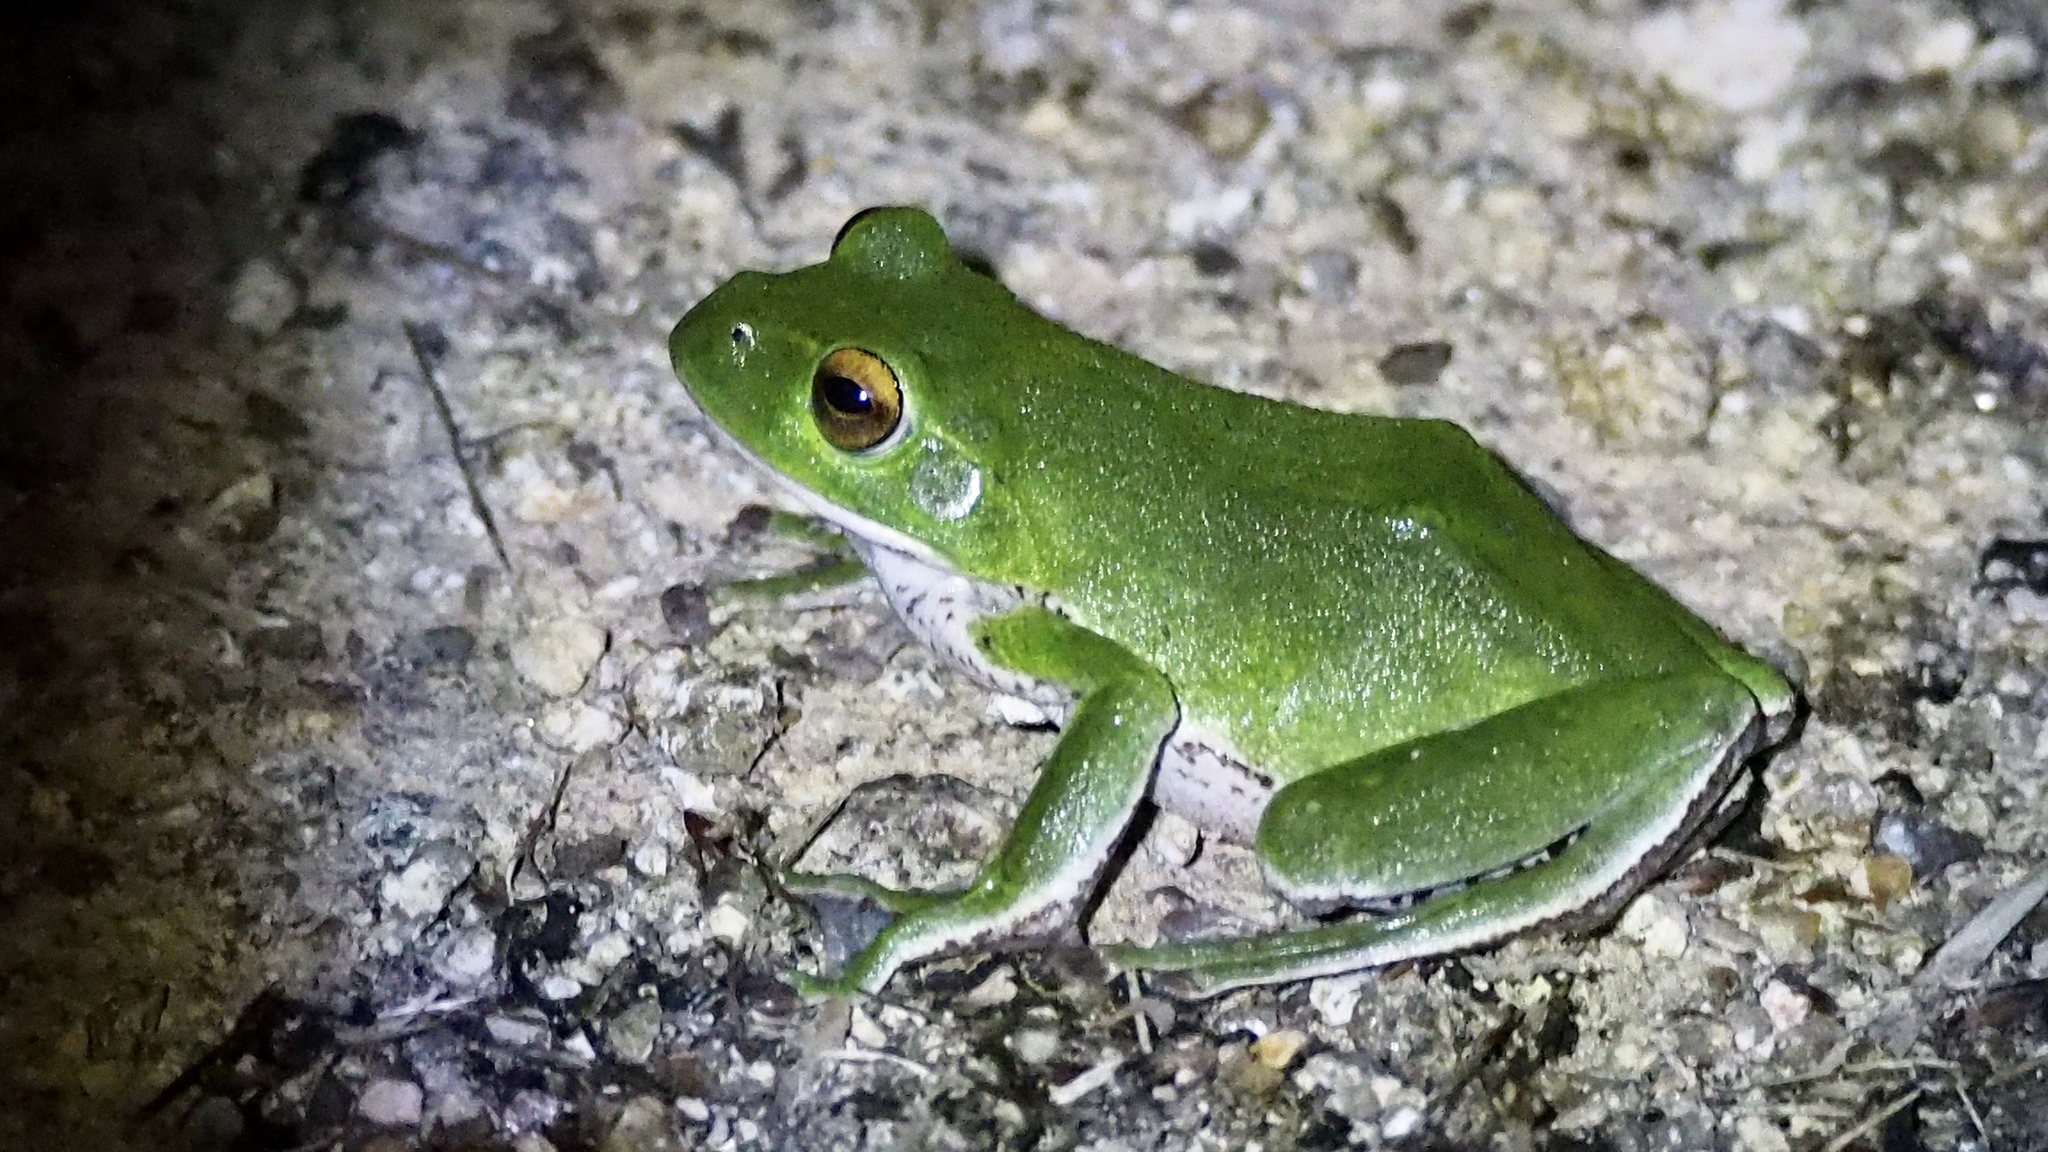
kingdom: Animalia
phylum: Chordata
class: Amphibia
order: Anura
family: Rhacophoridae
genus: Zhangixalus
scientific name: Zhangixalus arboreus
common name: Forest green tree frog
